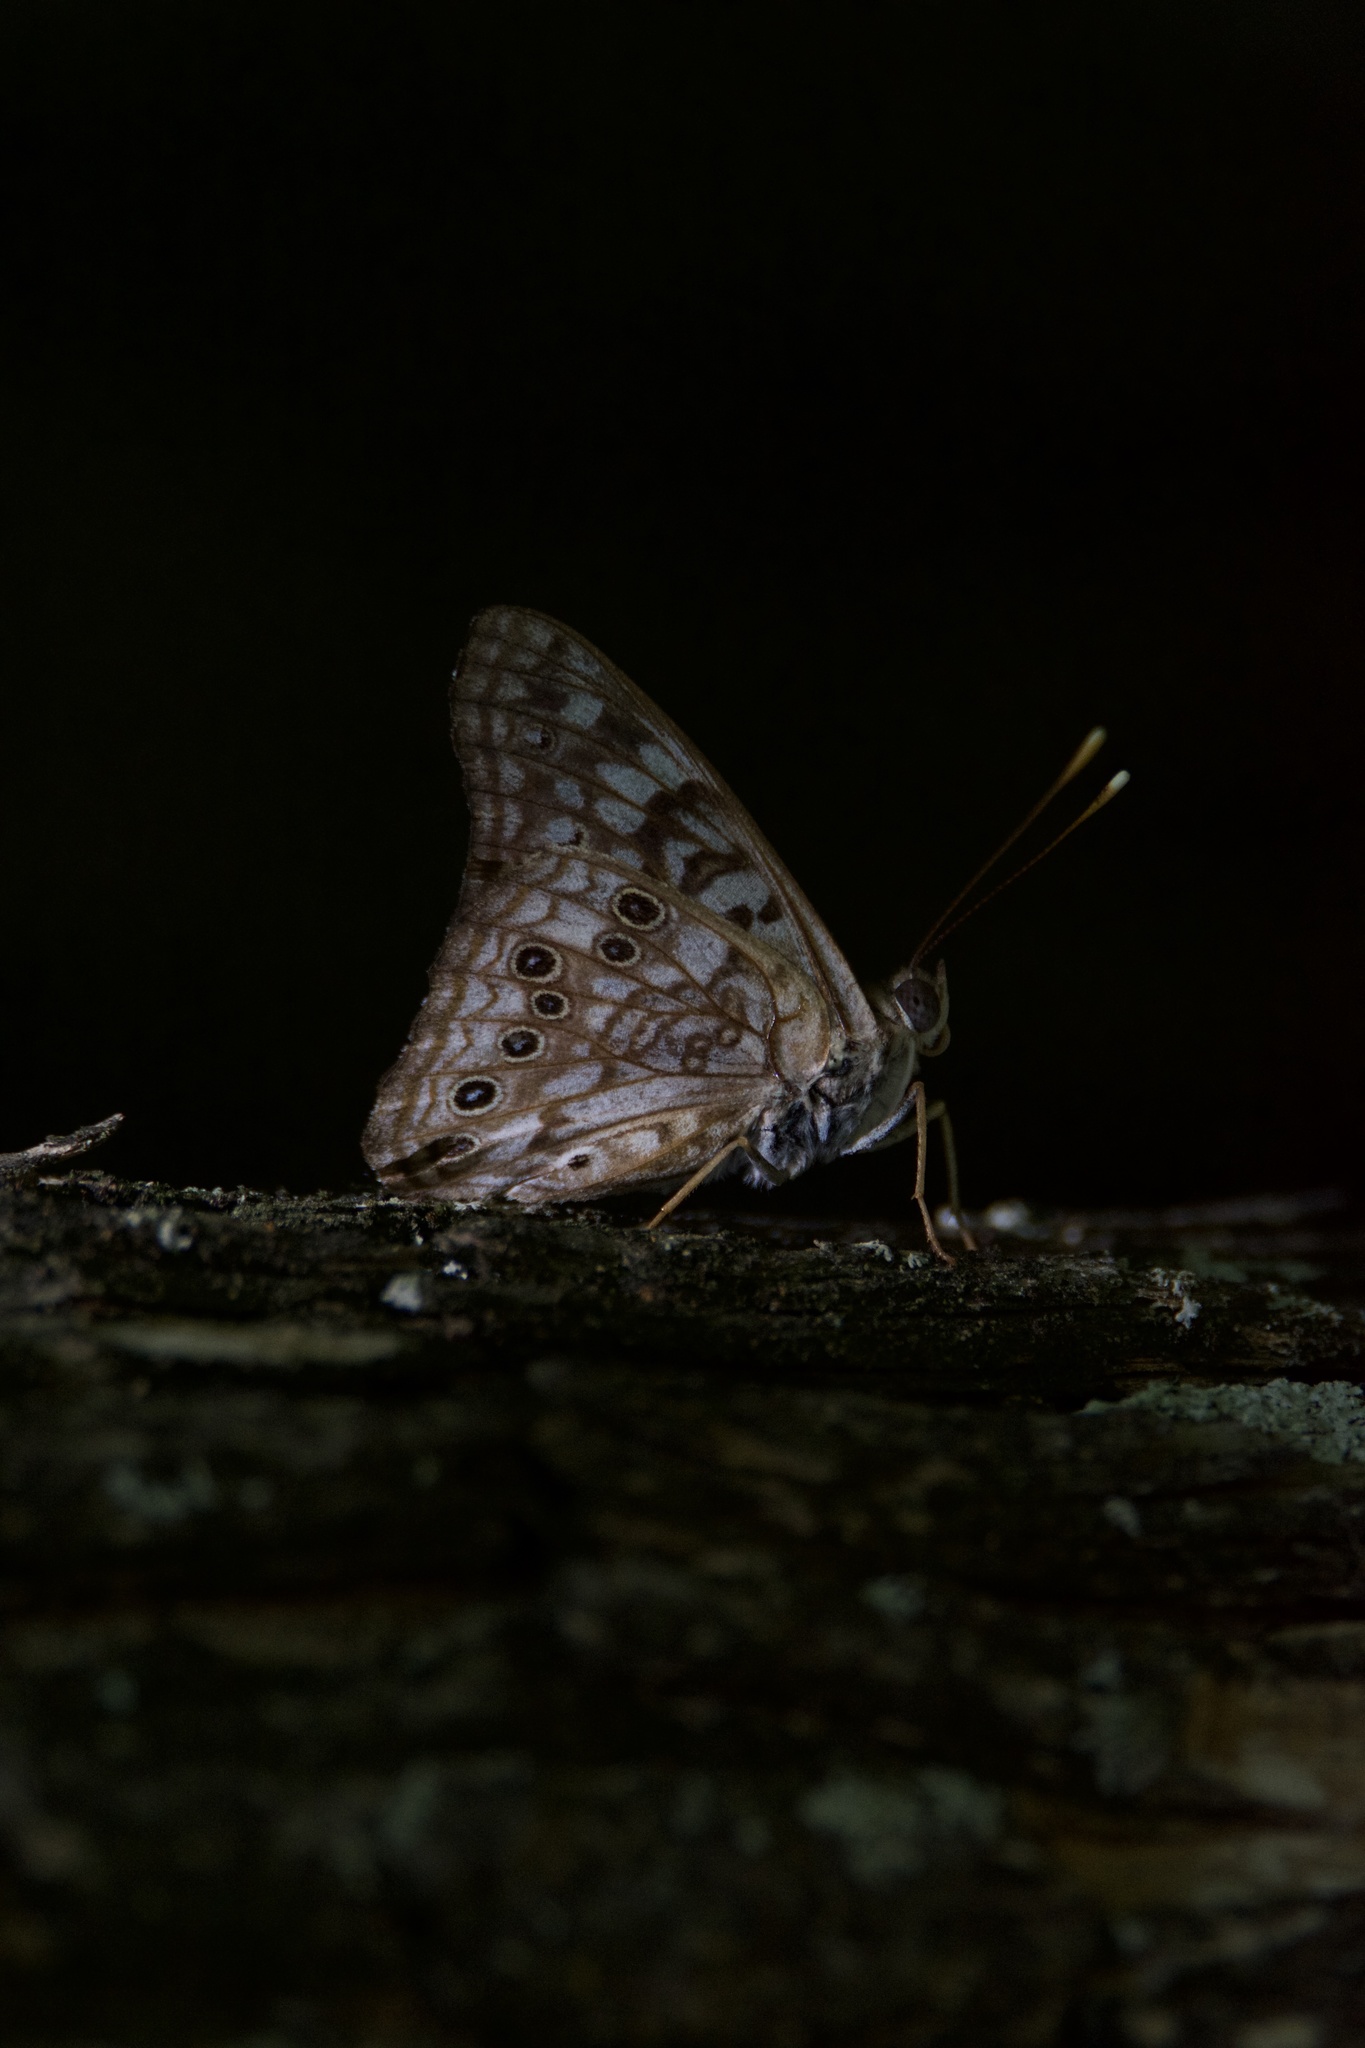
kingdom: Animalia
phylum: Arthropoda
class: Insecta
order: Lepidoptera
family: Nymphalidae
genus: Asterocampa
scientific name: Asterocampa celtis
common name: Hackberry emperor
